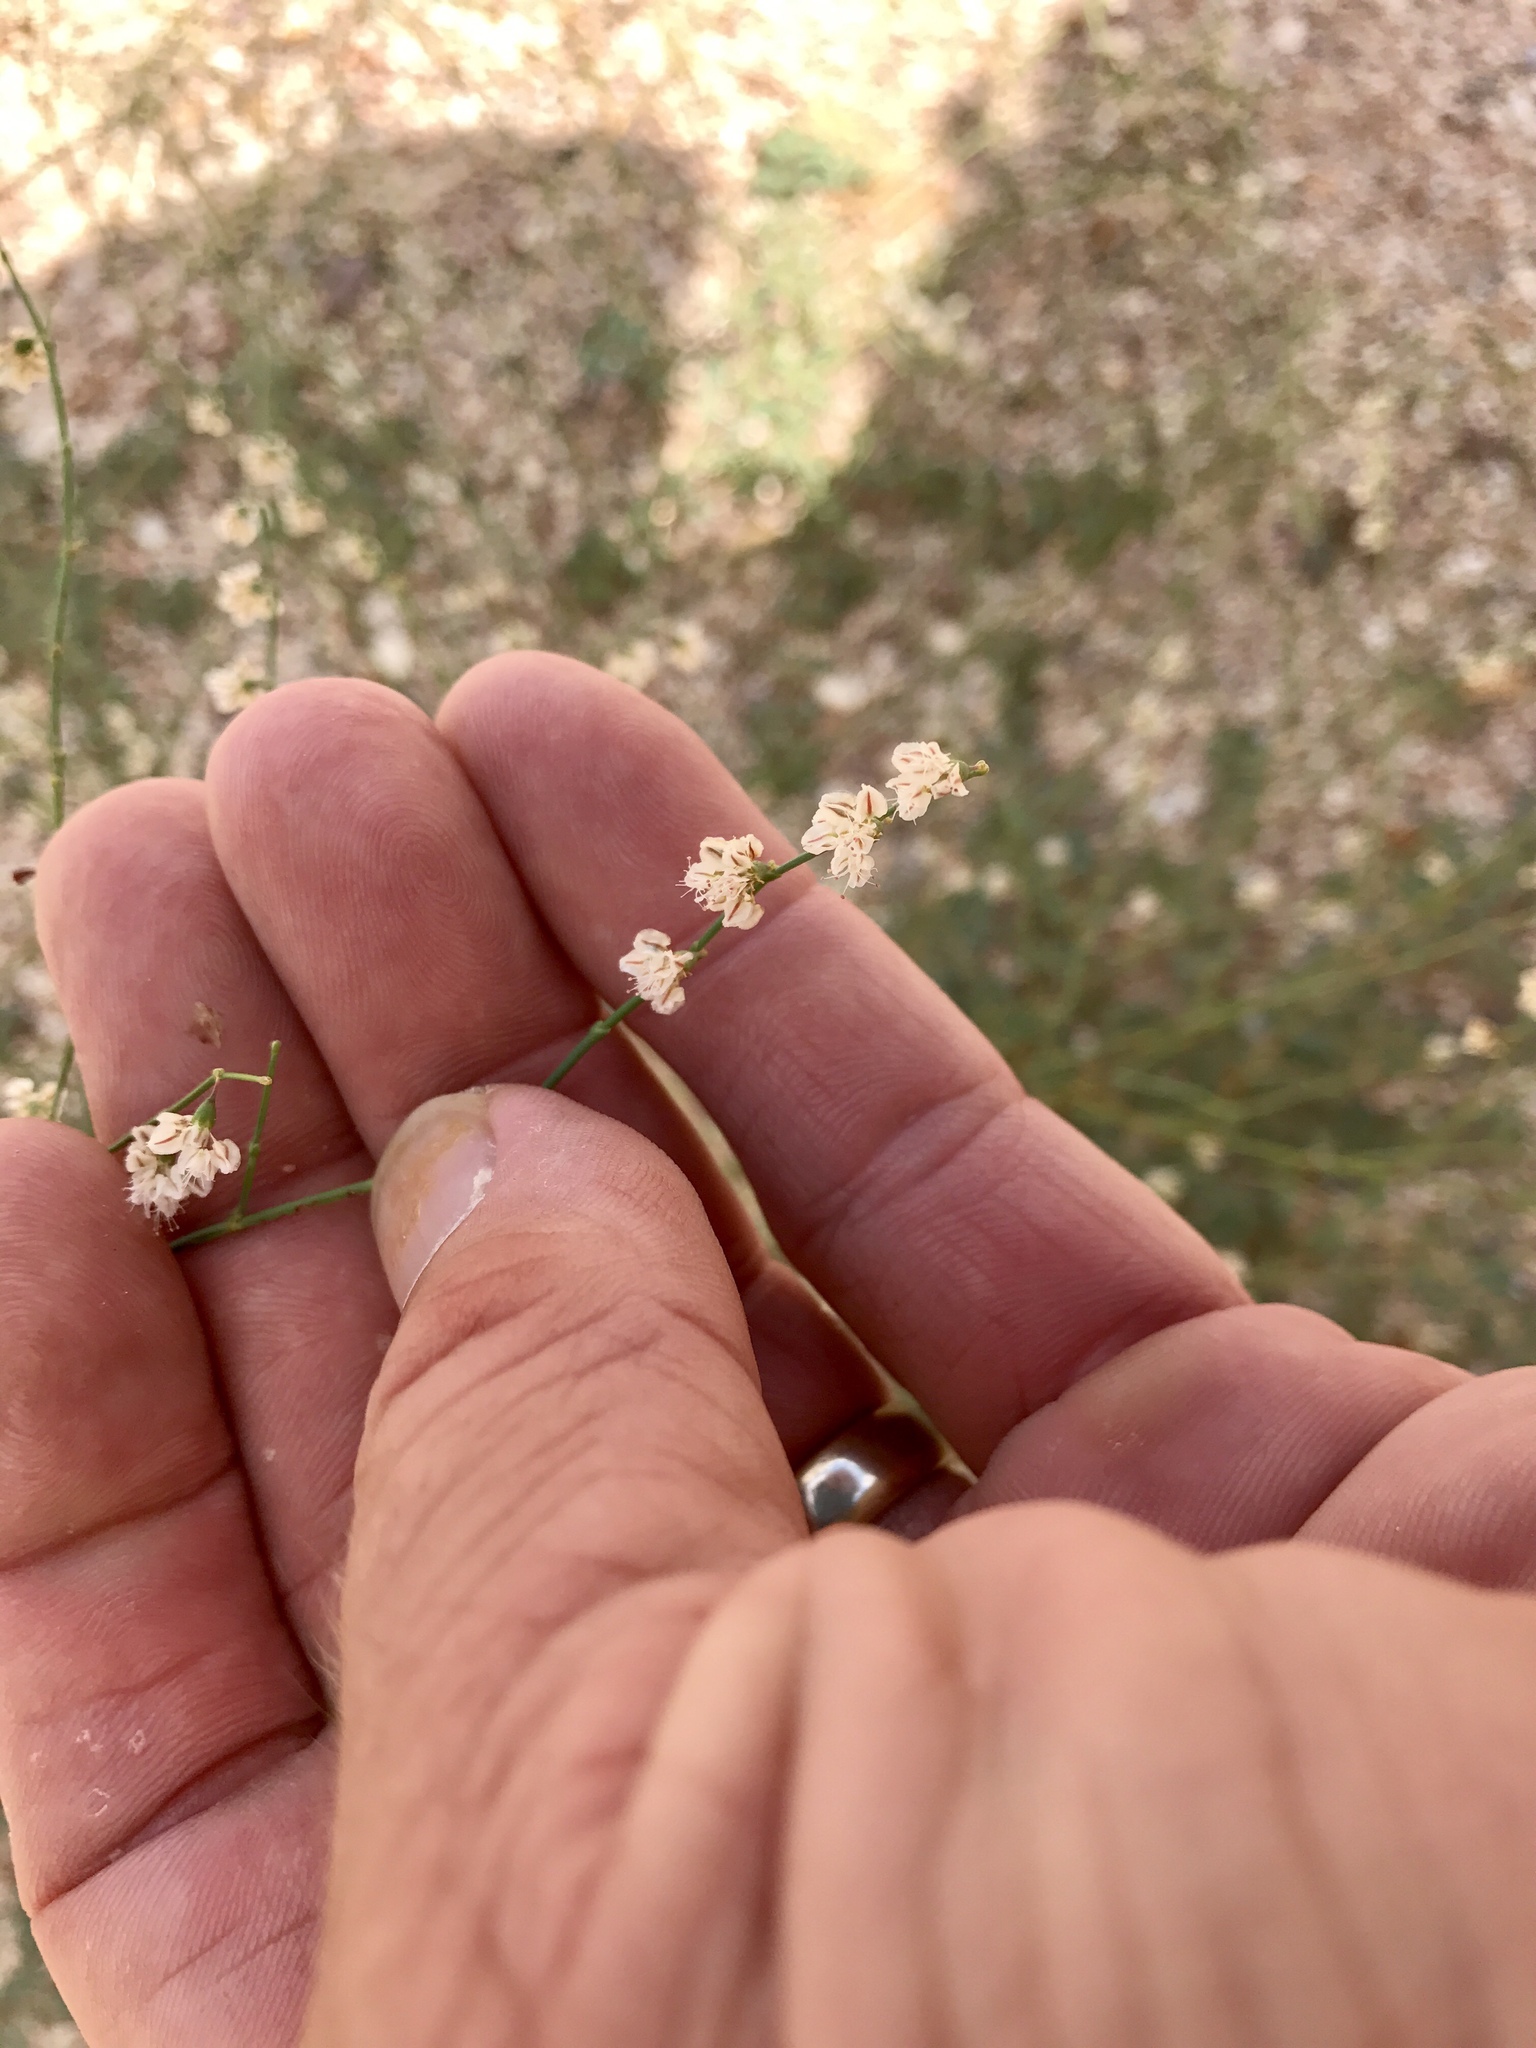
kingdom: Plantae
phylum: Tracheophyta
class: Magnoliopsida
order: Caryophyllales
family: Polygonaceae
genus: Eriogonum
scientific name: Eriogonum deflexum
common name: Skeleton-weed
